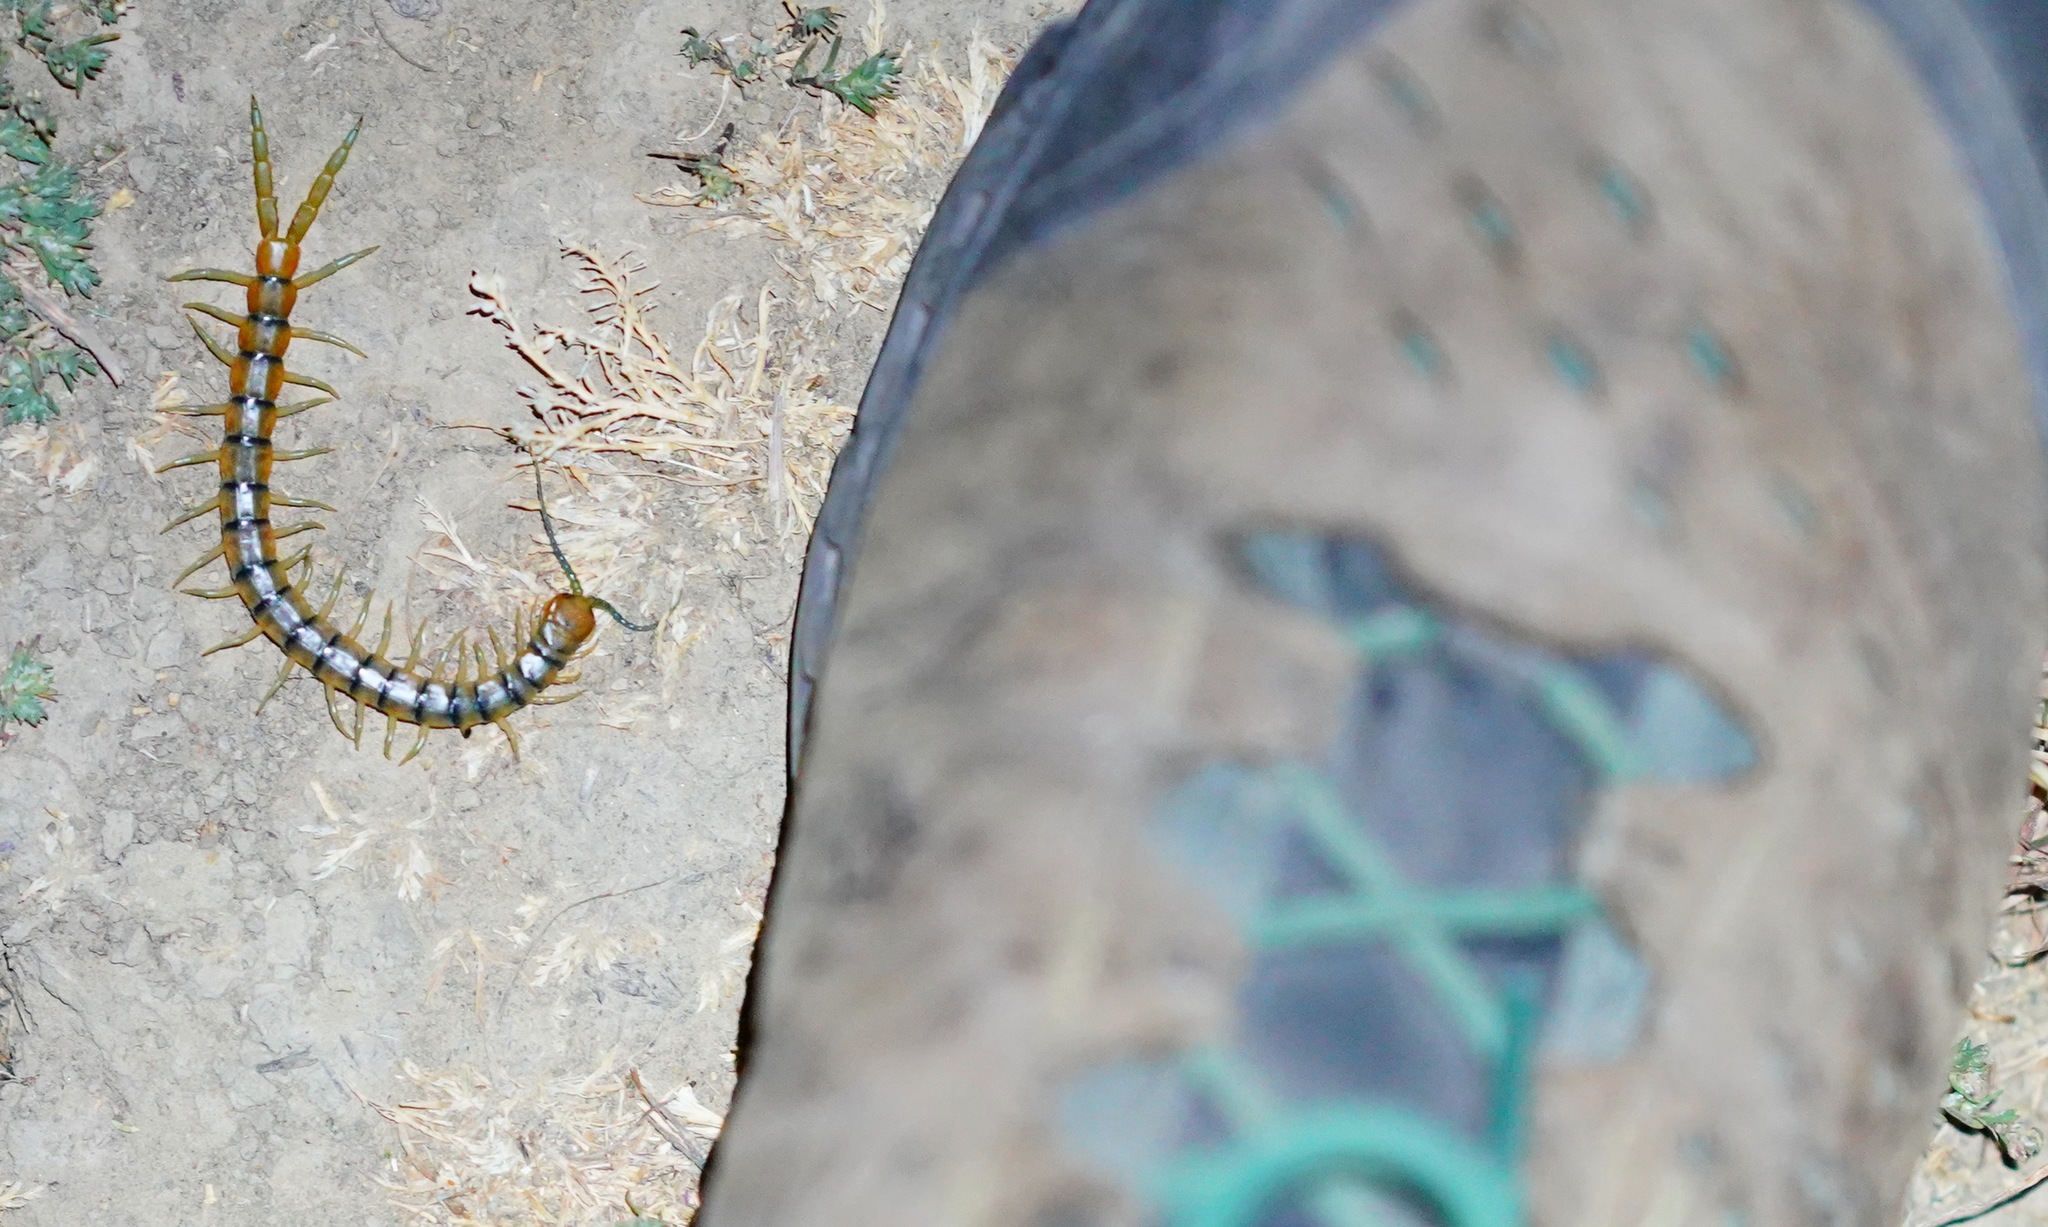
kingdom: Animalia
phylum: Arthropoda
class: Chilopoda
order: Scolopendromorpha
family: Scolopendridae
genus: Scolopendra
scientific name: Scolopendra polymorpha
